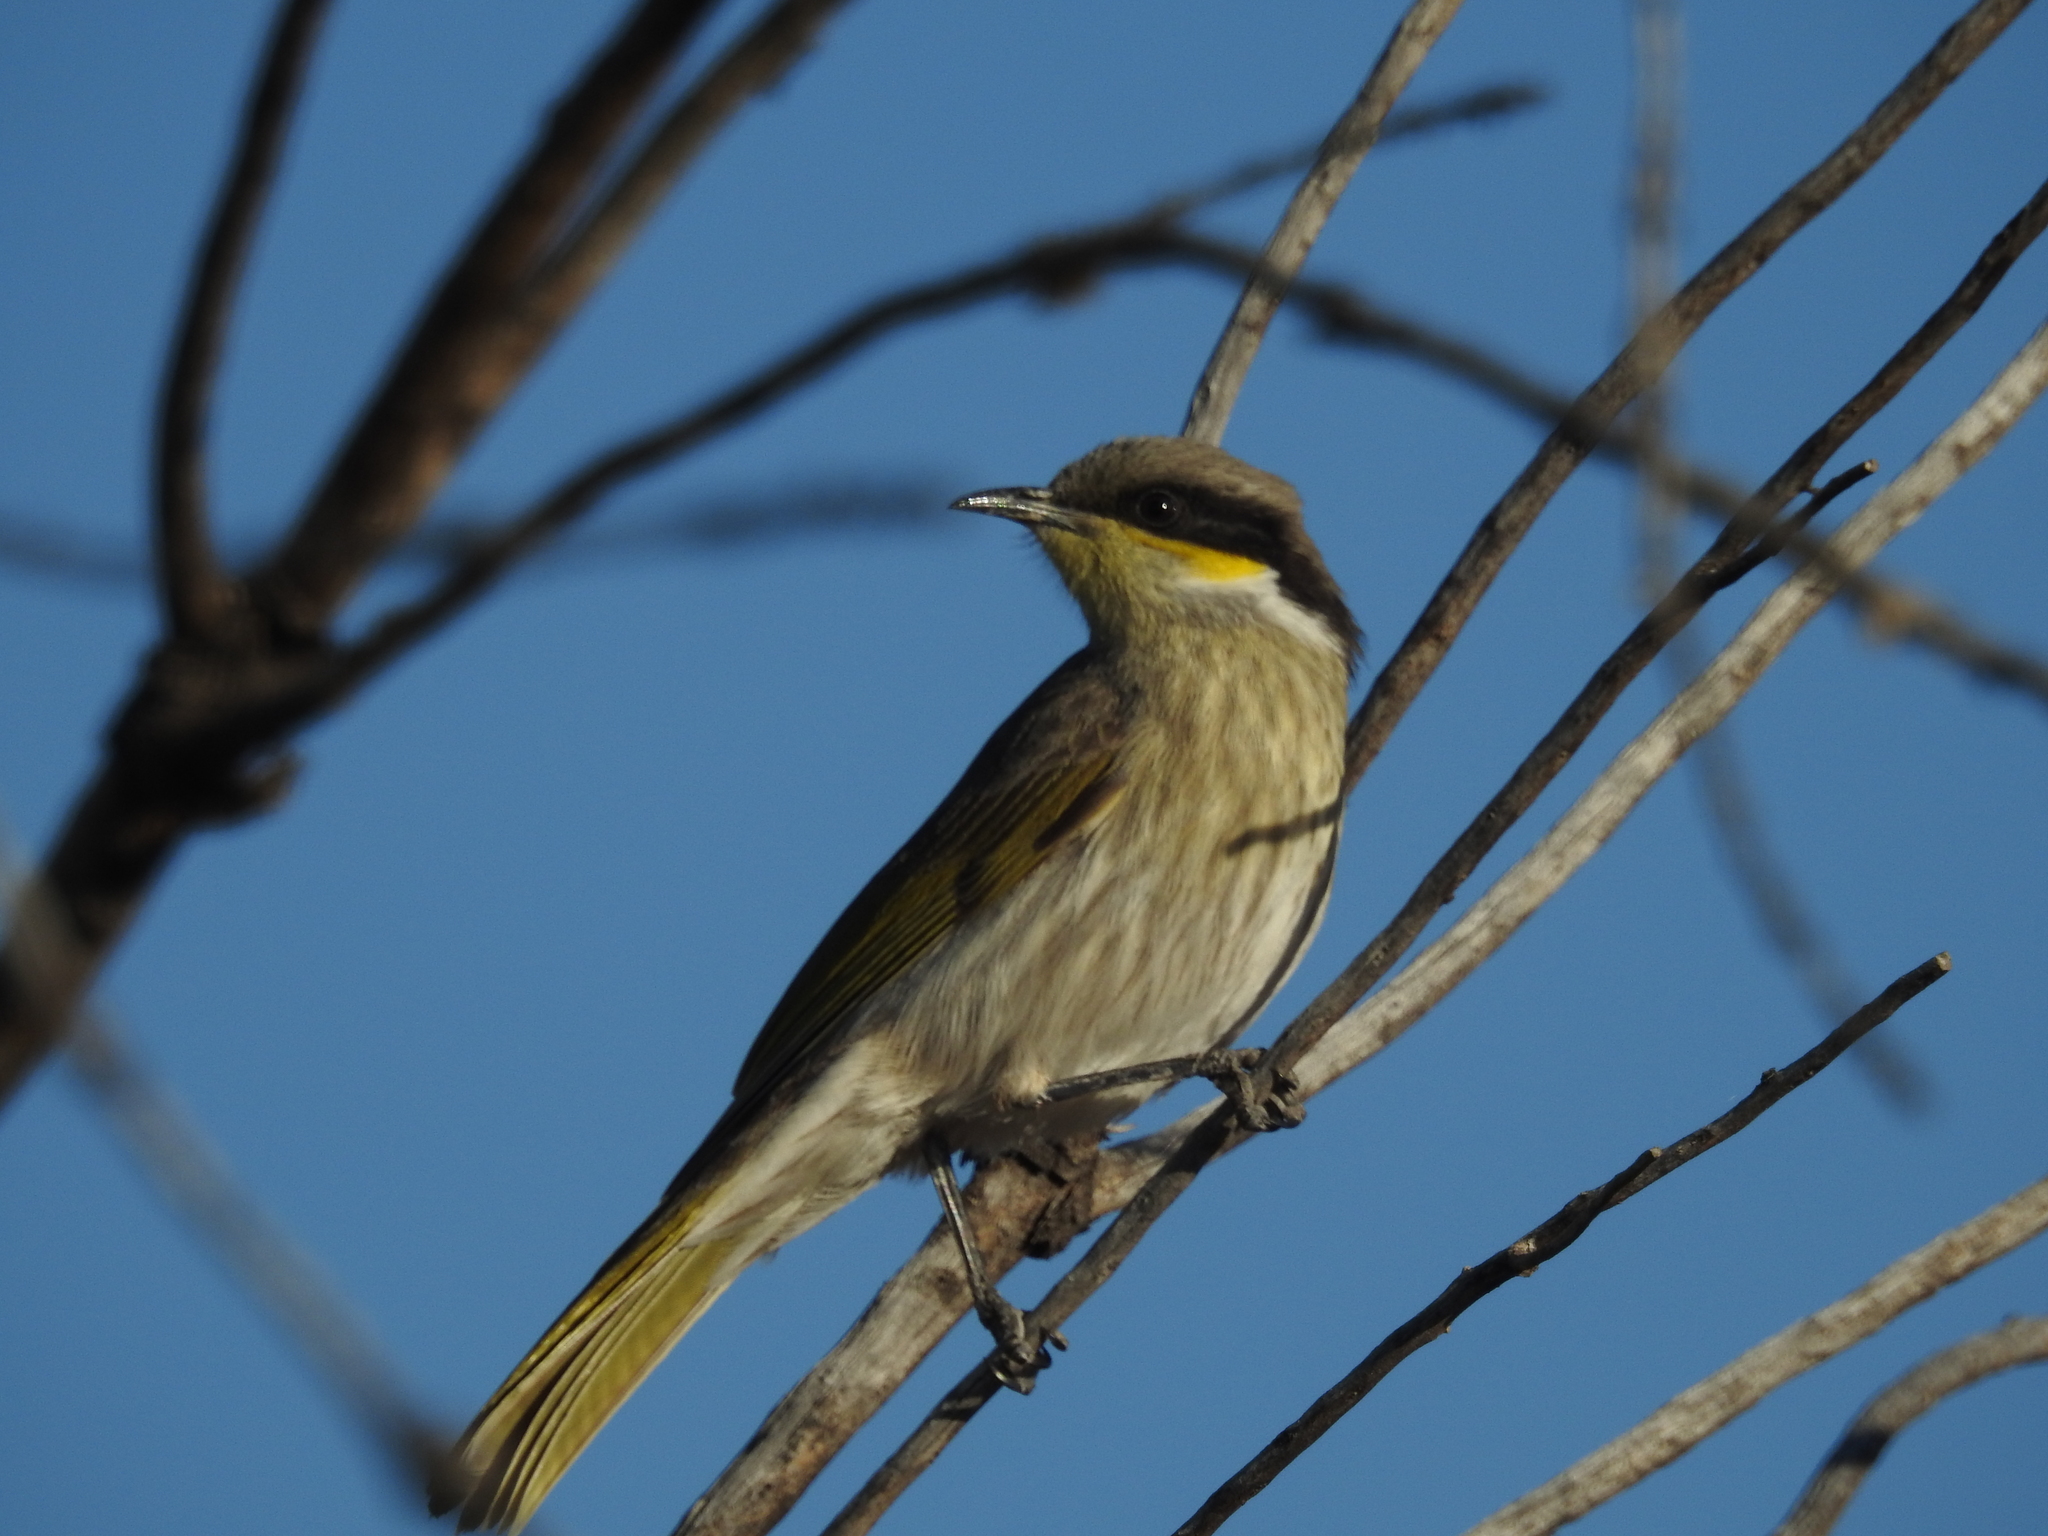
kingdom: Animalia
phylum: Chordata
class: Aves
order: Passeriformes
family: Meliphagidae
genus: Gavicalis
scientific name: Gavicalis virescens
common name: Singing honeyeater
